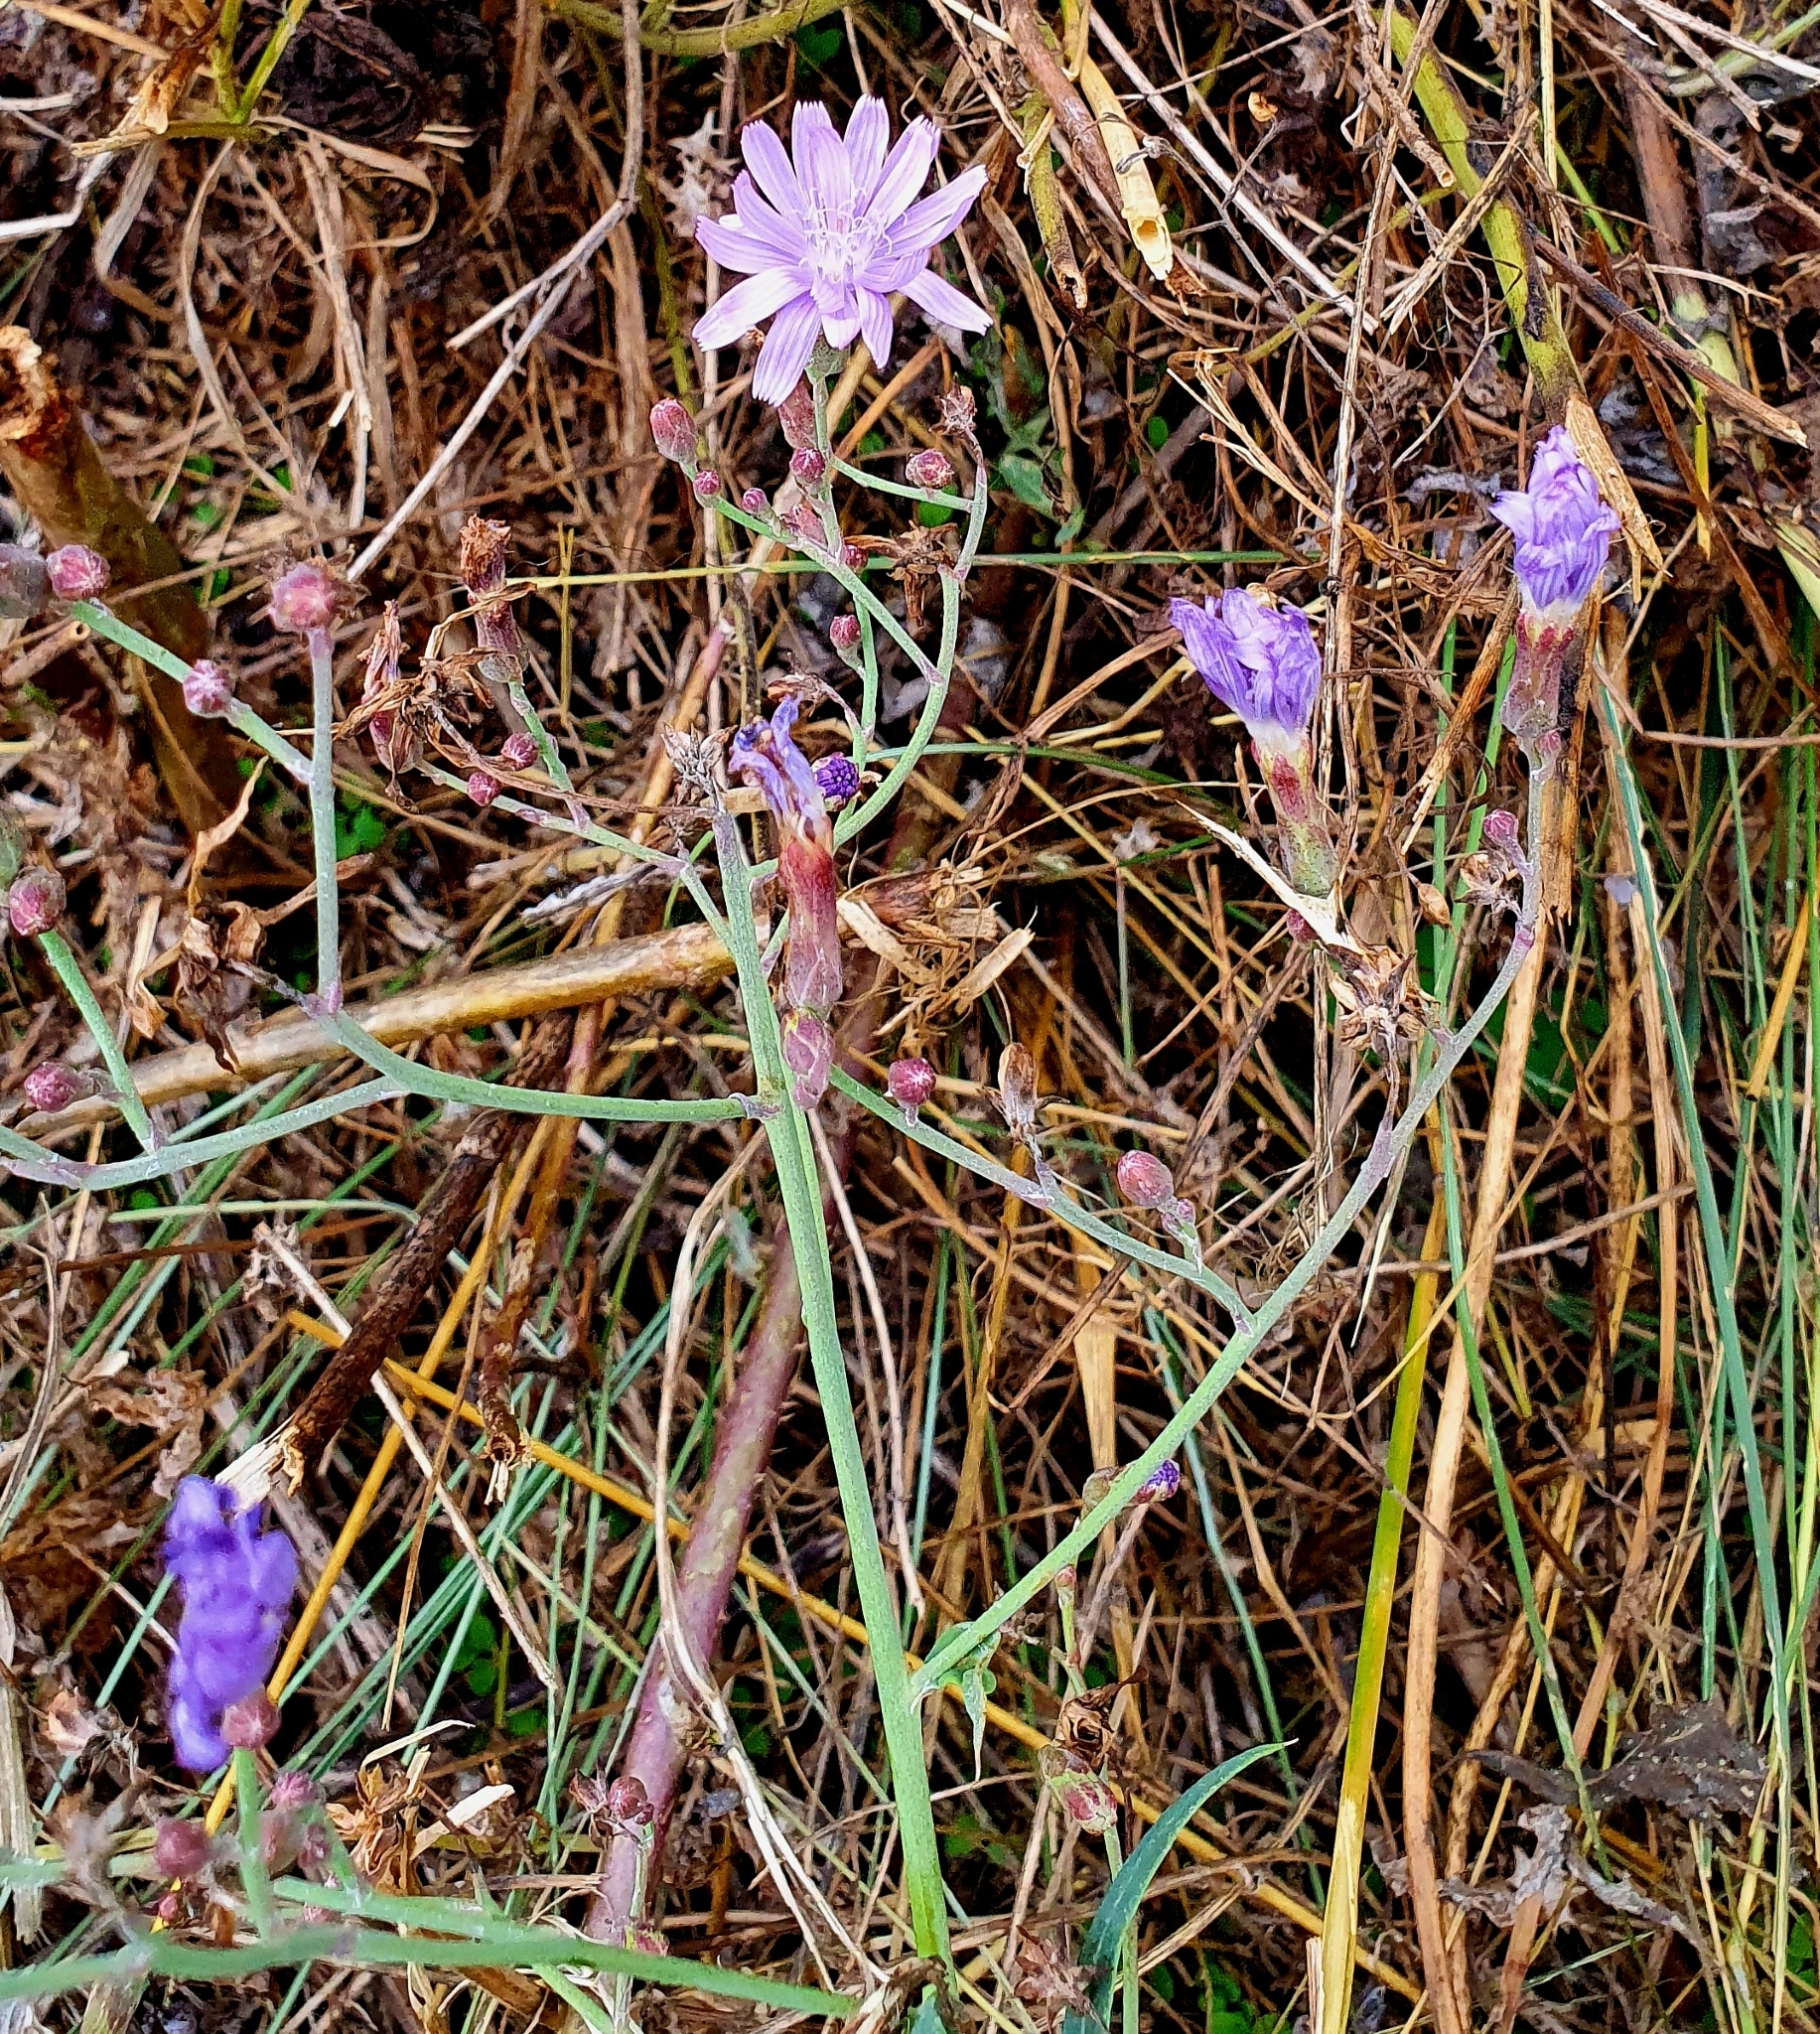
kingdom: Plantae
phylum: Tracheophyta
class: Magnoliopsida
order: Asterales
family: Asteraceae
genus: Lactuca
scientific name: Lactuca tatarica
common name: Blue lettuce
